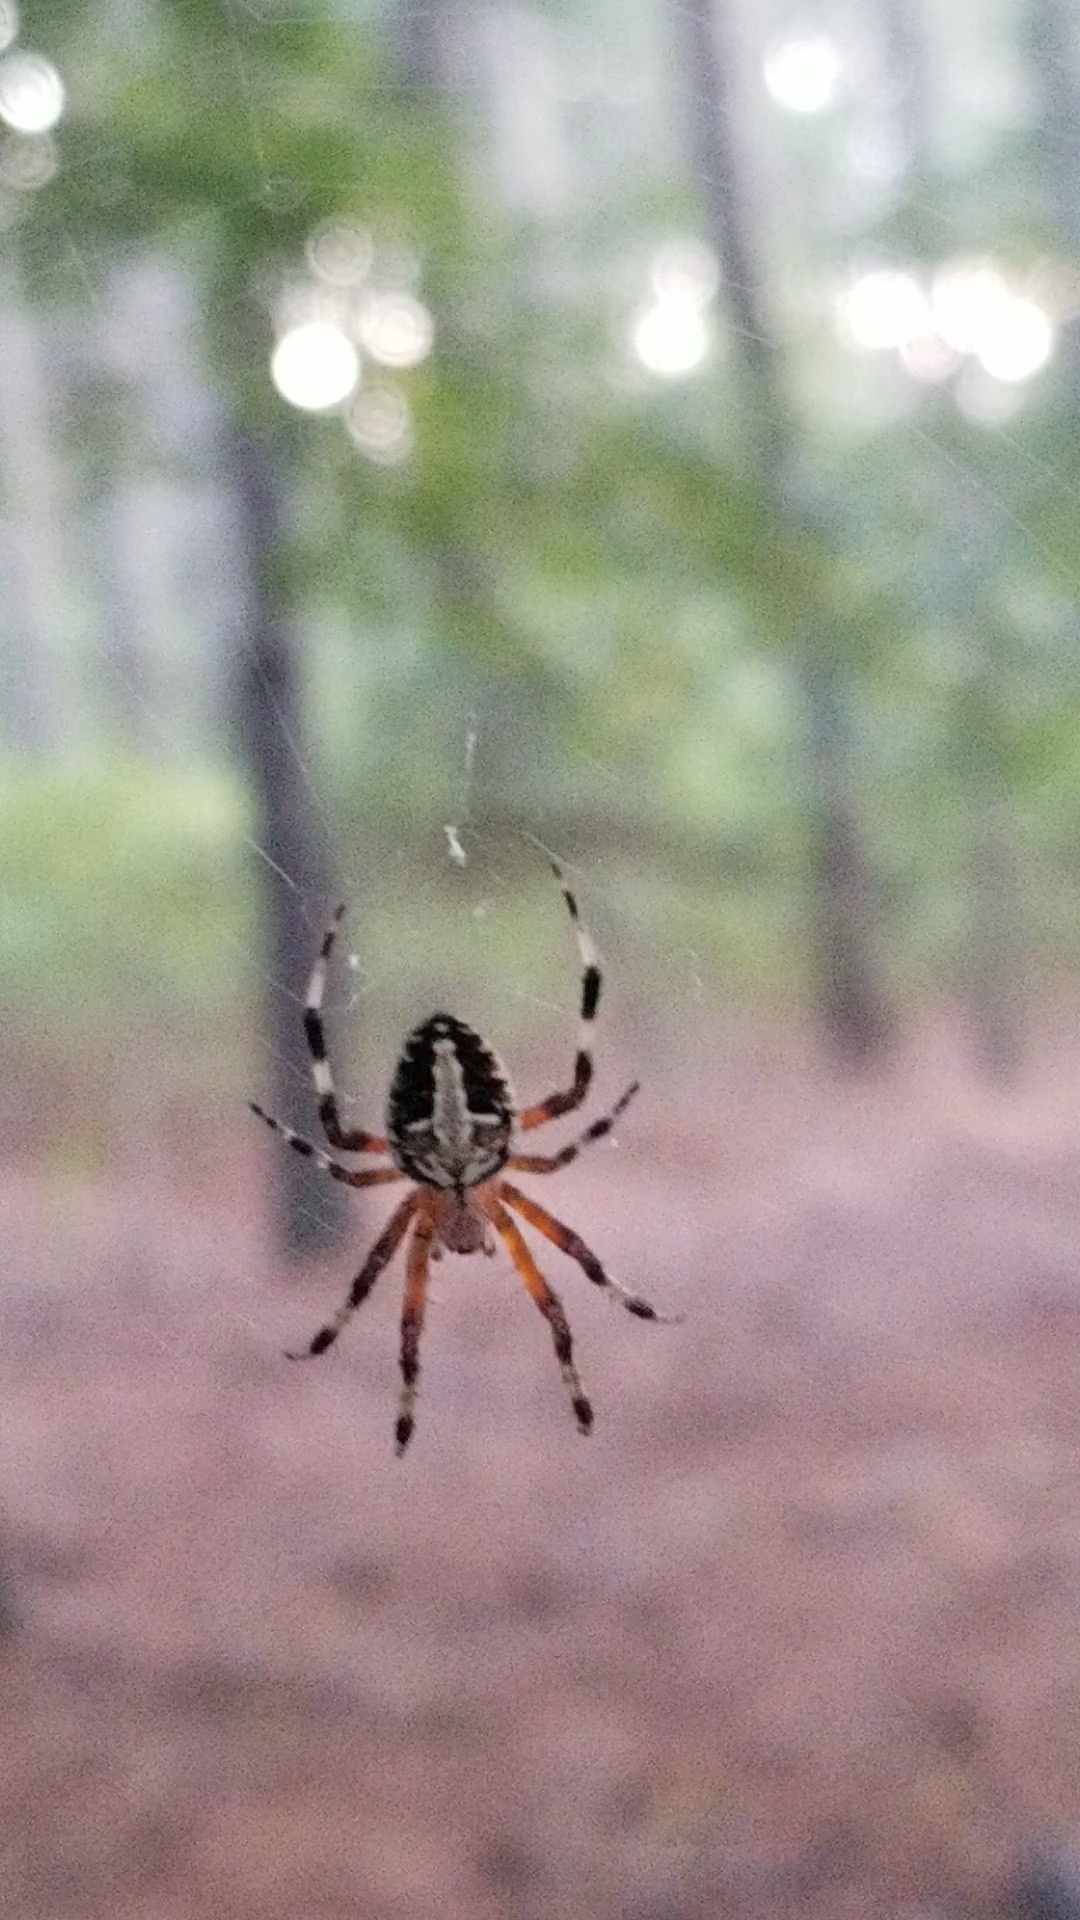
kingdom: Animalia
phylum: Arthropoda
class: Arachnida
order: Araneae
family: Araneidae
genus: Neoscona
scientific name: Neoscona domiciliorum
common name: Red-femured spotted orbweaver
